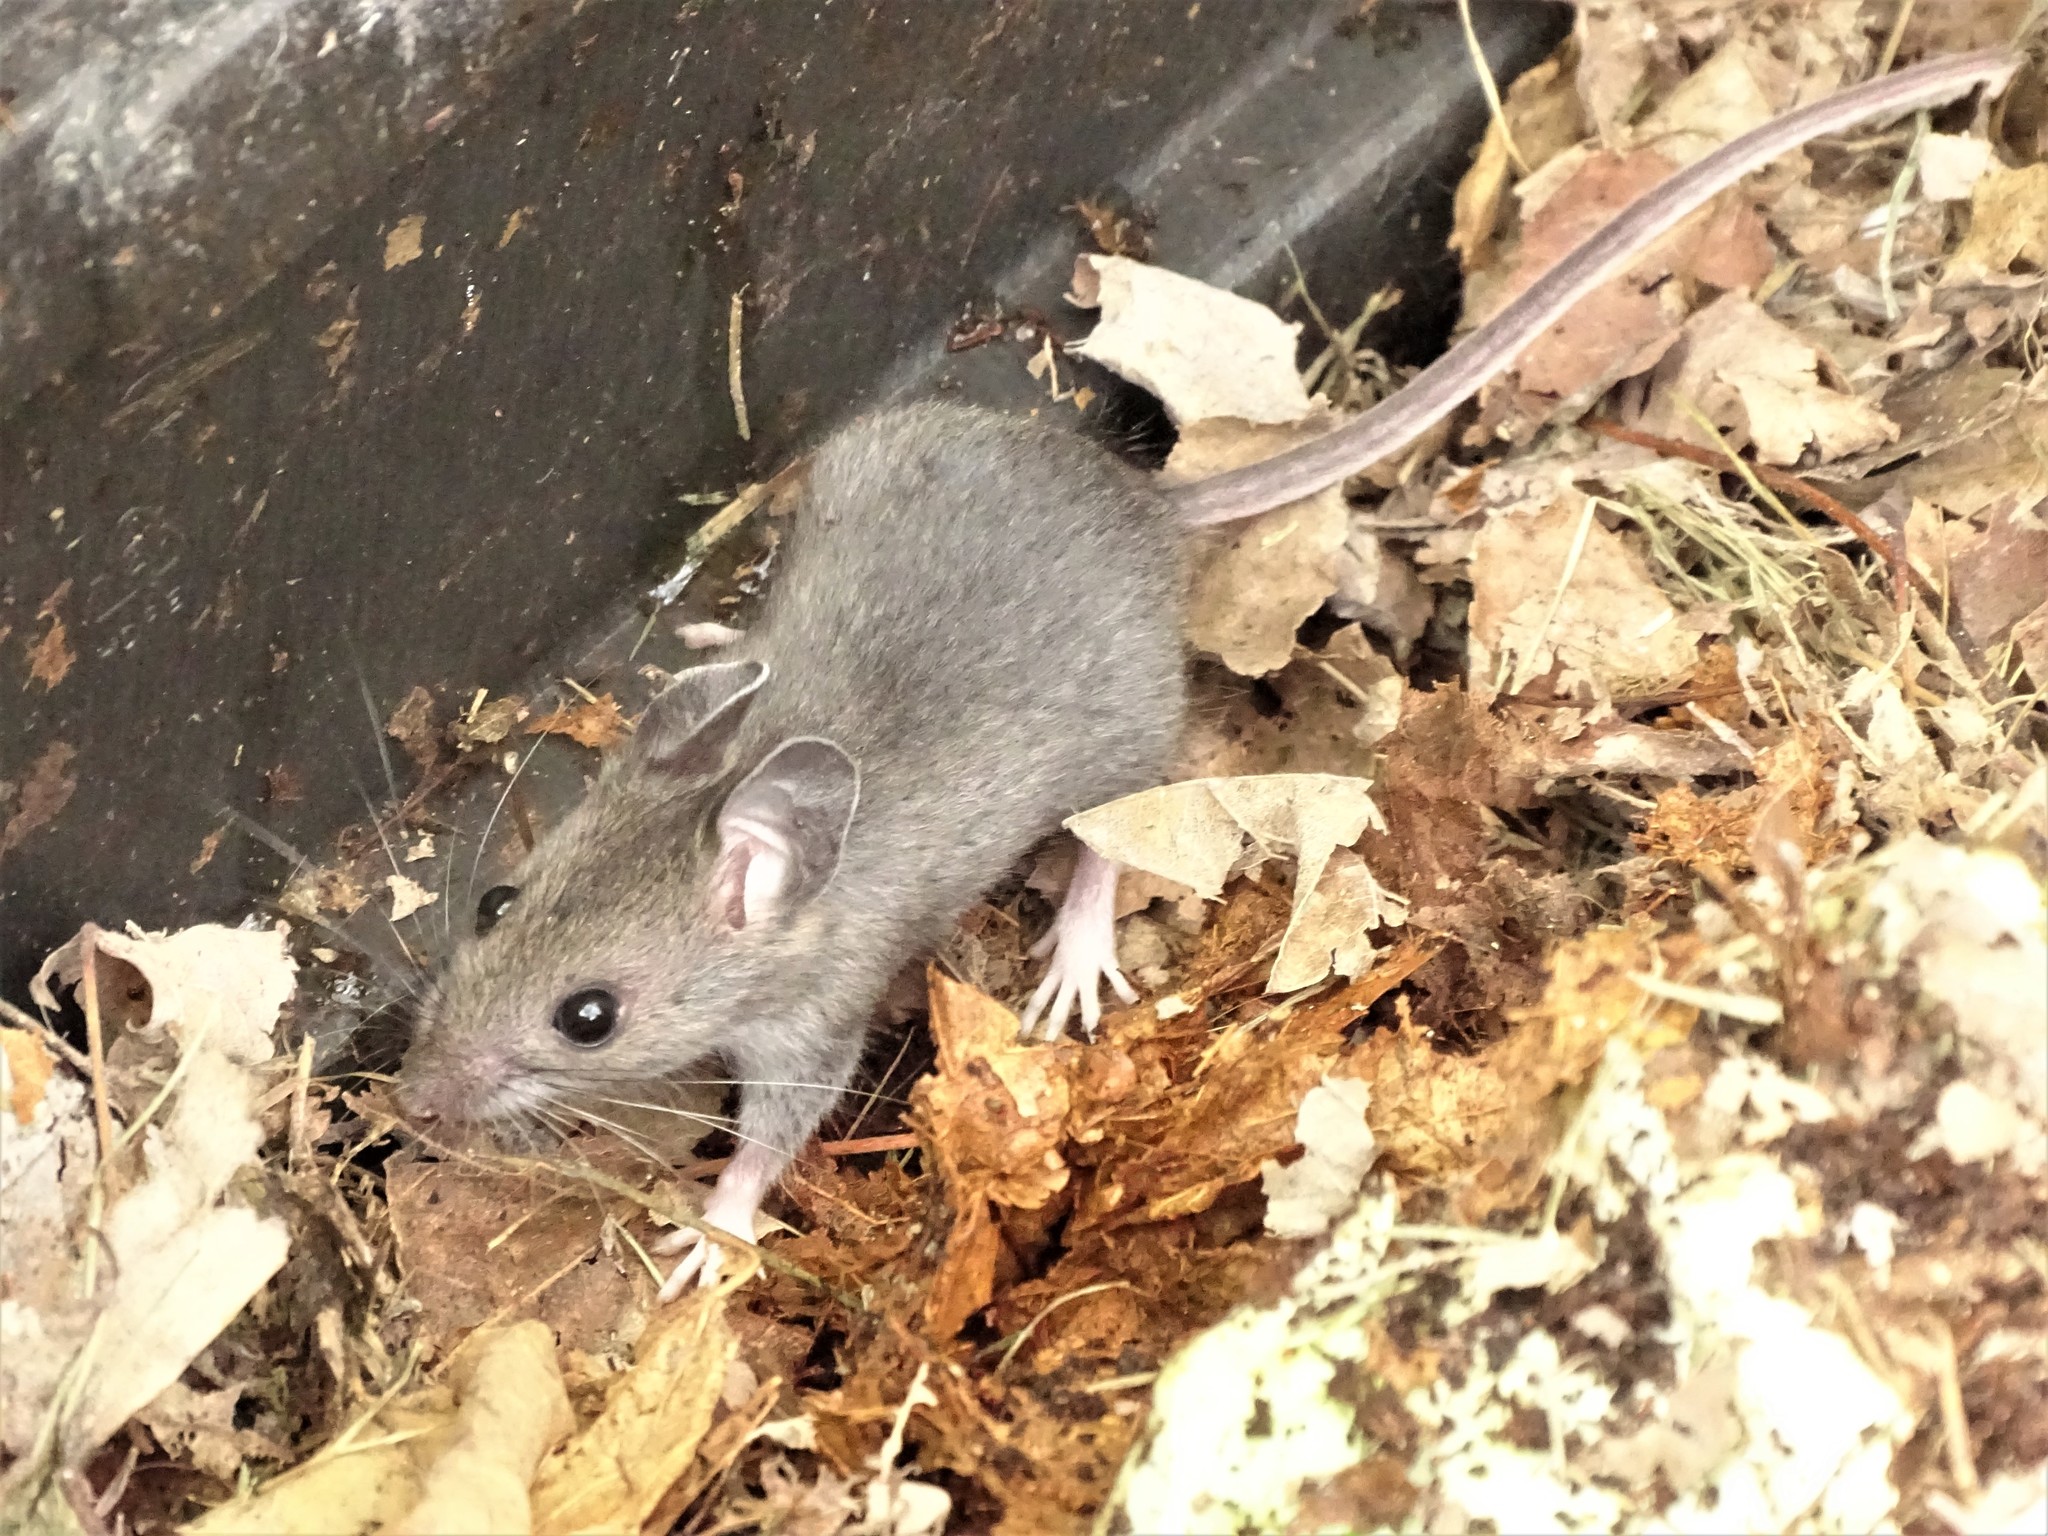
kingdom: Animalia
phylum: Chordata
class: Mammalia
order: Rodentia
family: Cricetidae
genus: Peromyscus
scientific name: Peromyscus
